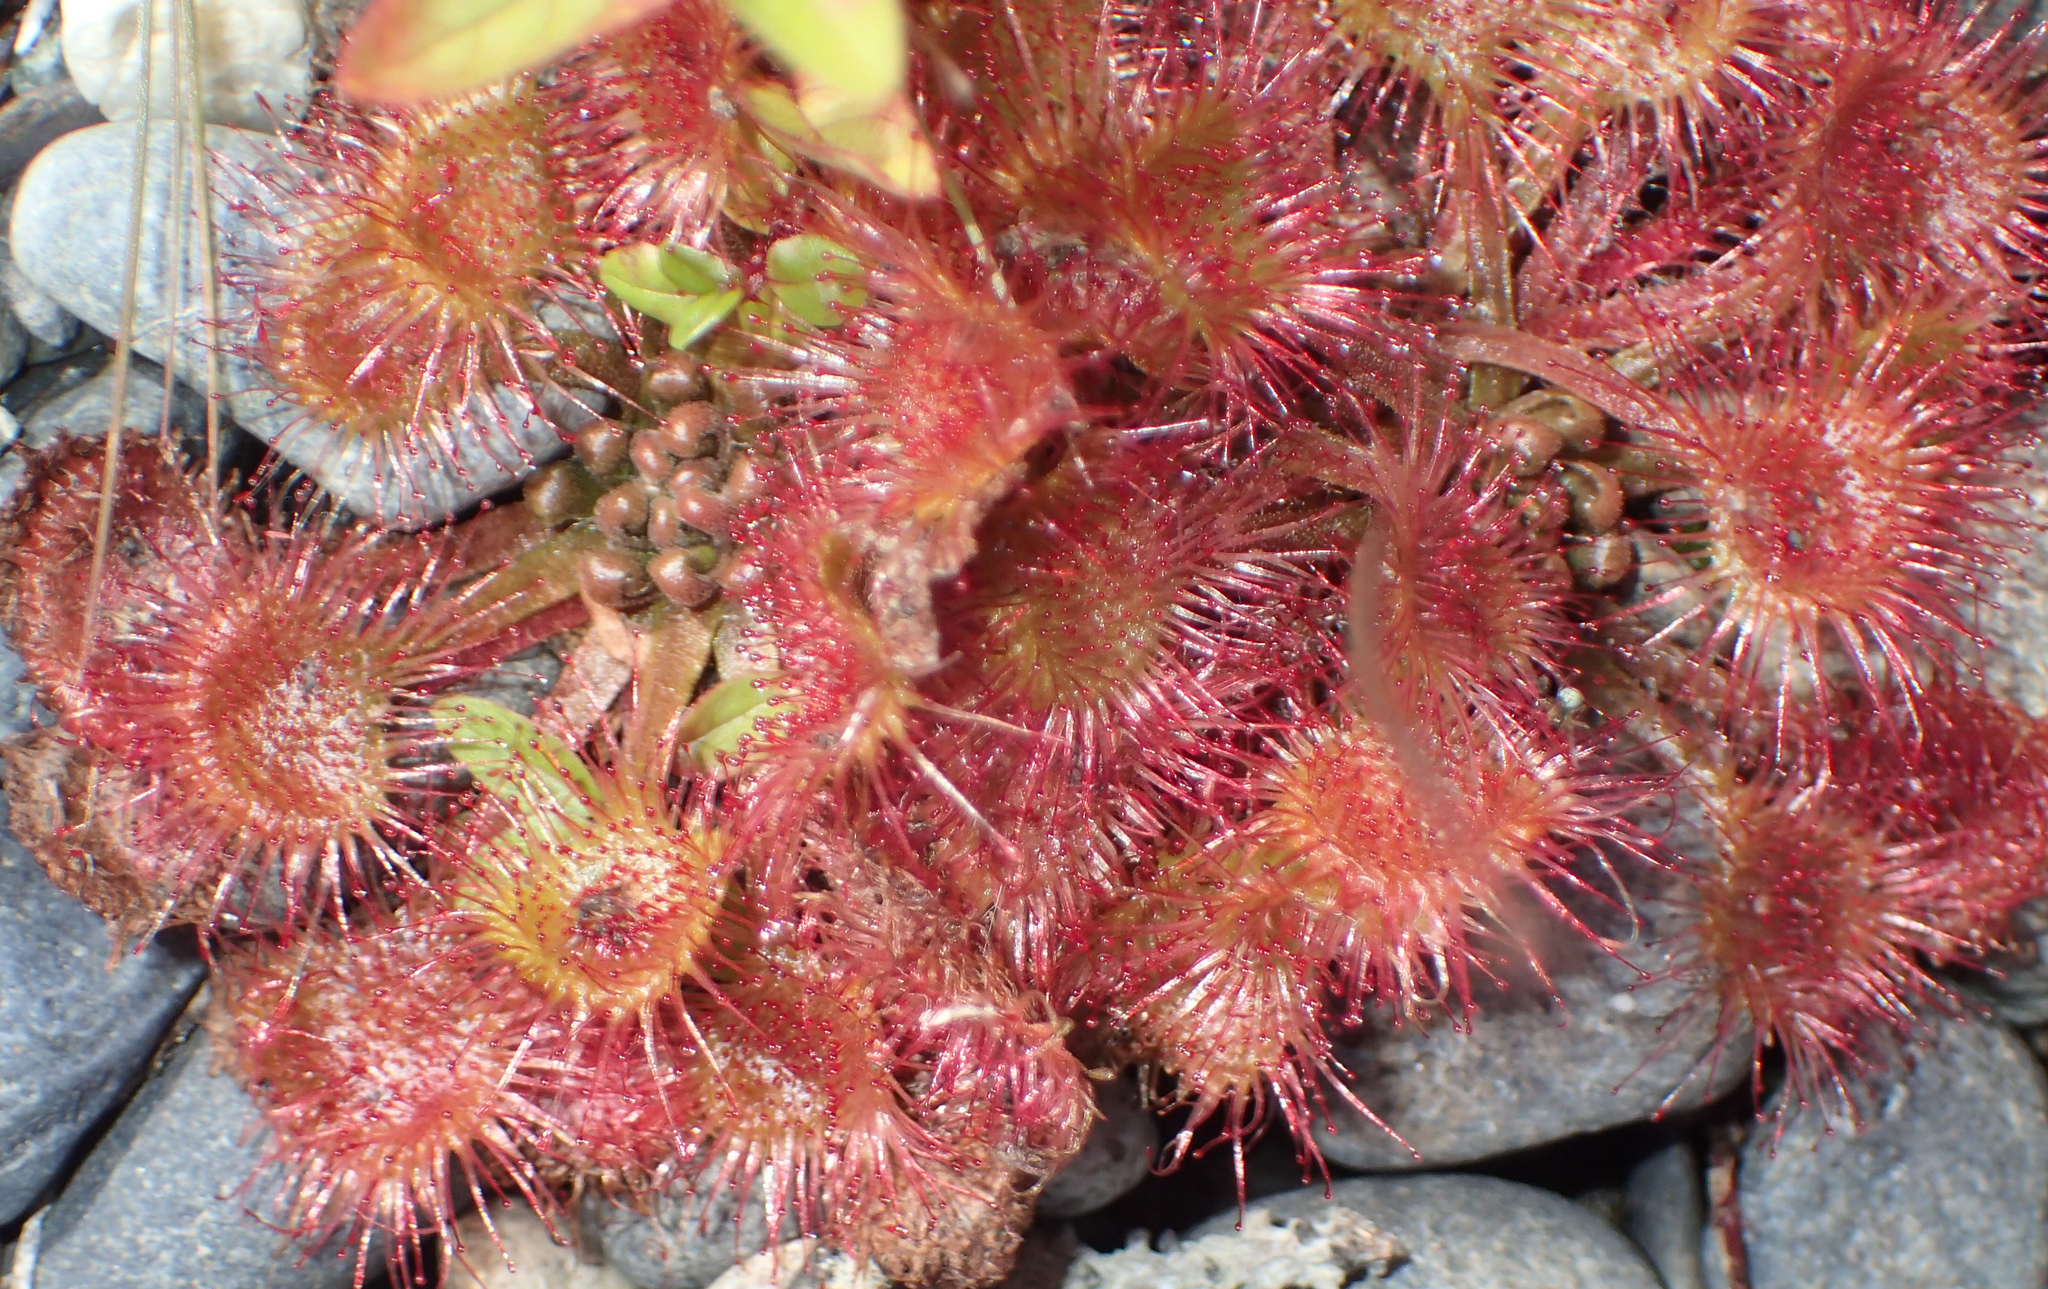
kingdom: Plantae
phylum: Tracheophyta
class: Magnoliopsida
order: Caryophyllales
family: Droseraceae
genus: Drosera
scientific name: Drosera rotundifolia
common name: Round-leaved sundew
